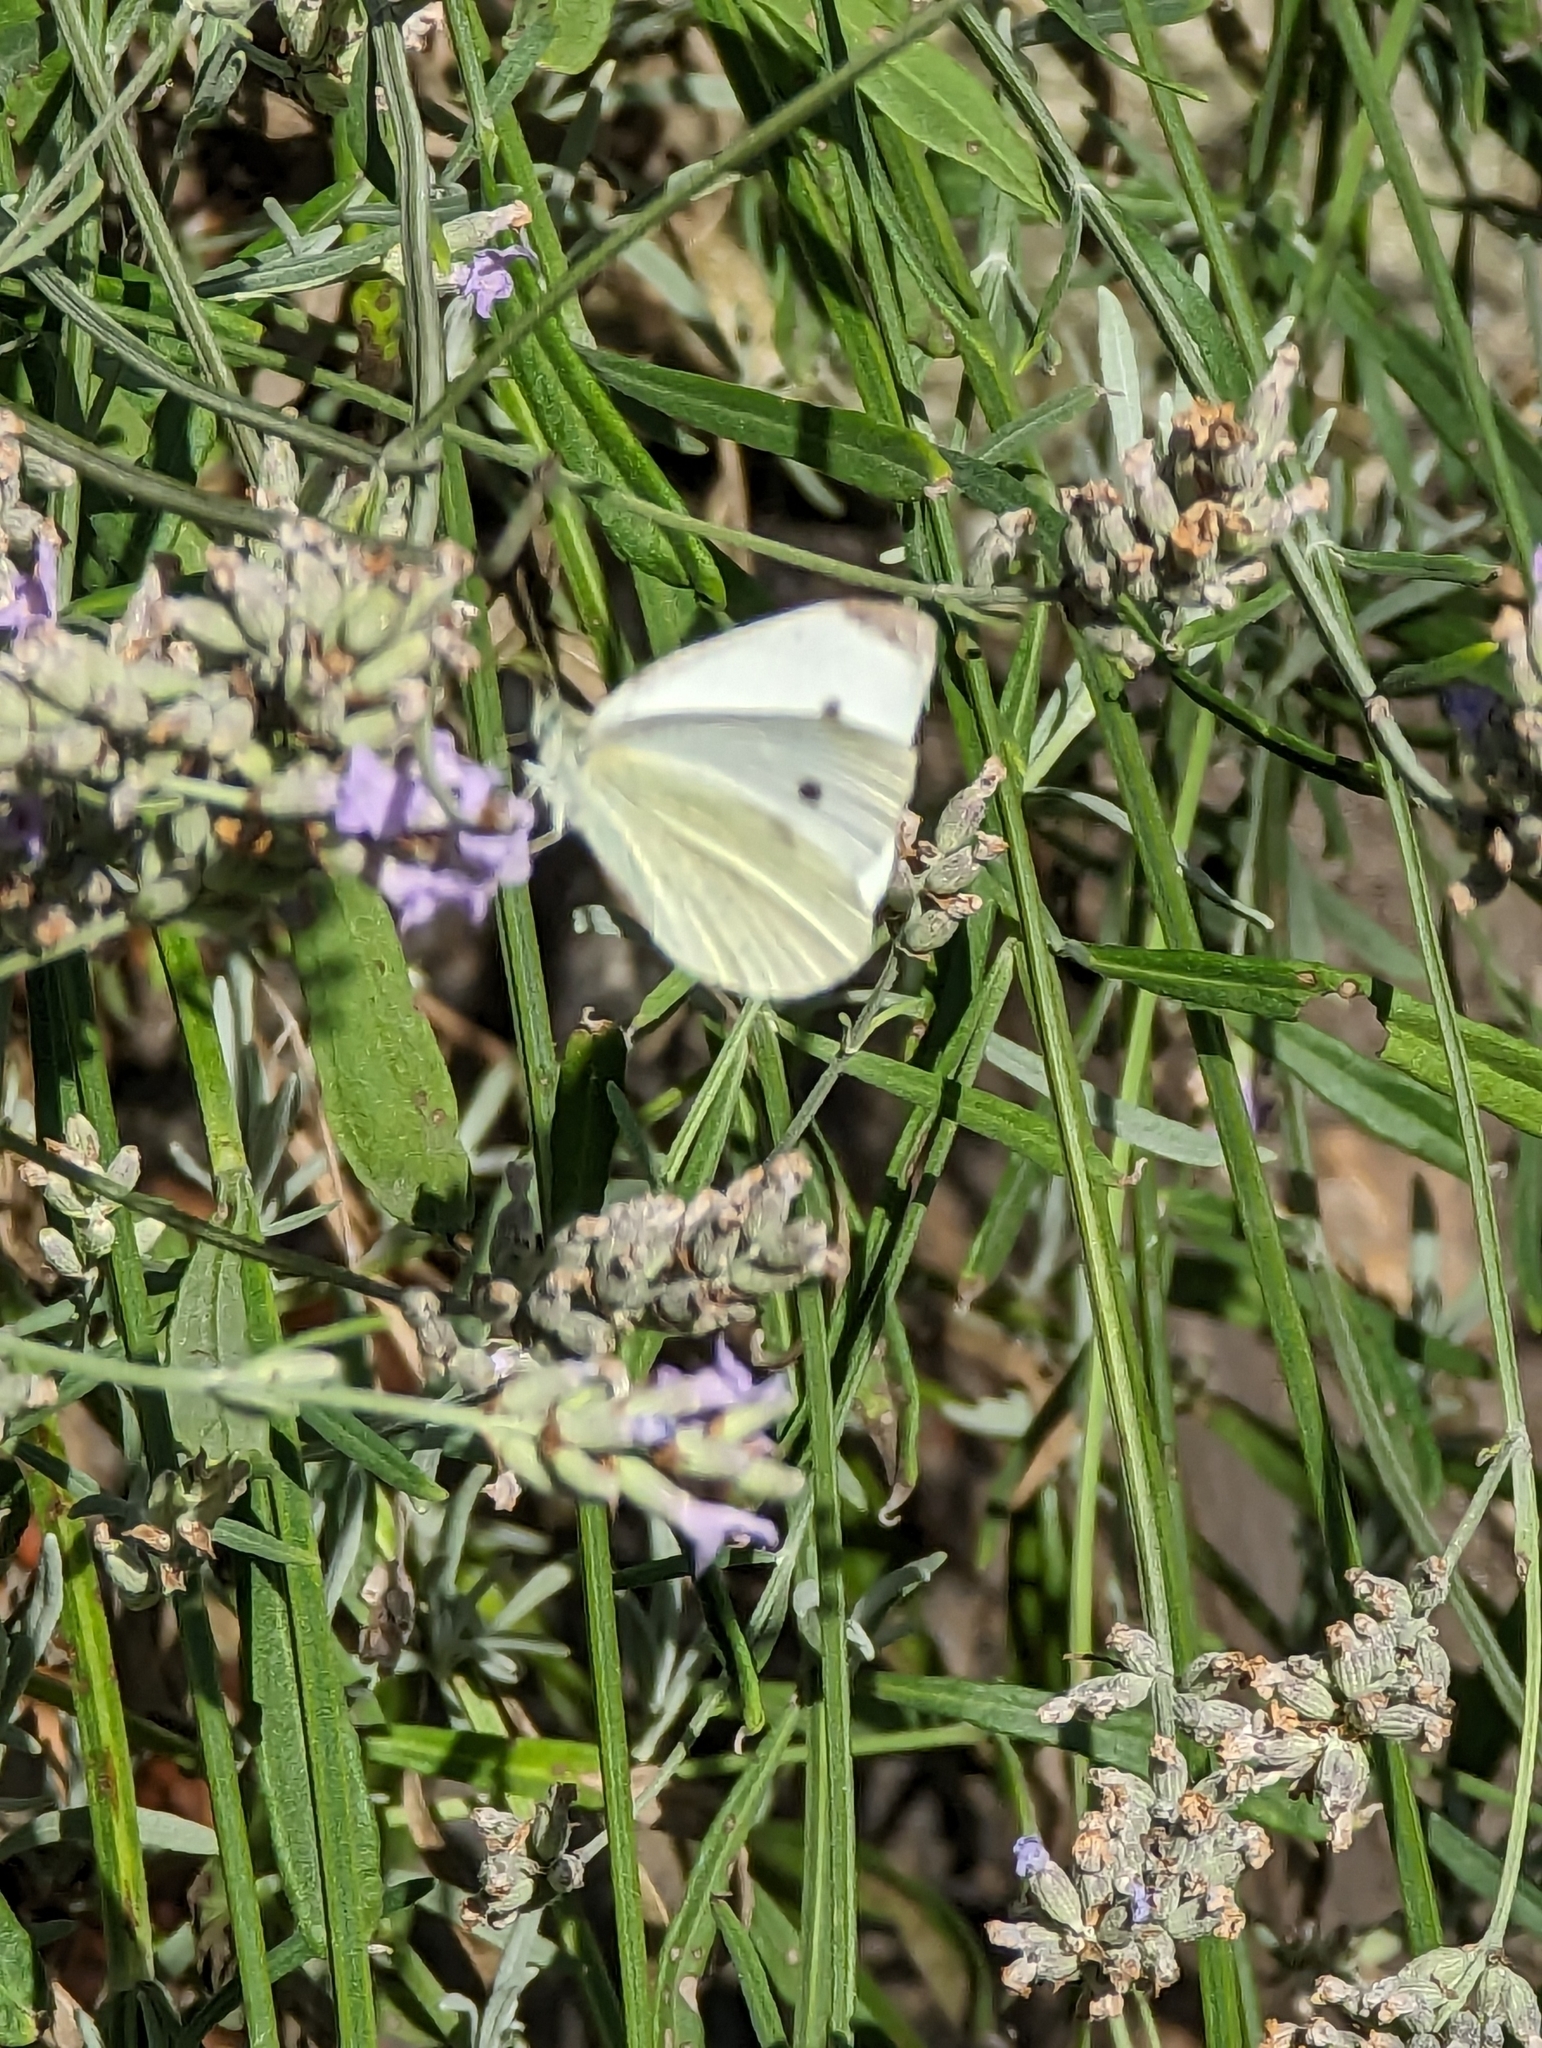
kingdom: Animalia
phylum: Arthropoda
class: Insecta
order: Lepidoptera
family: Pieridae
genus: Pieris
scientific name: Pieris rapae
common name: Small white
